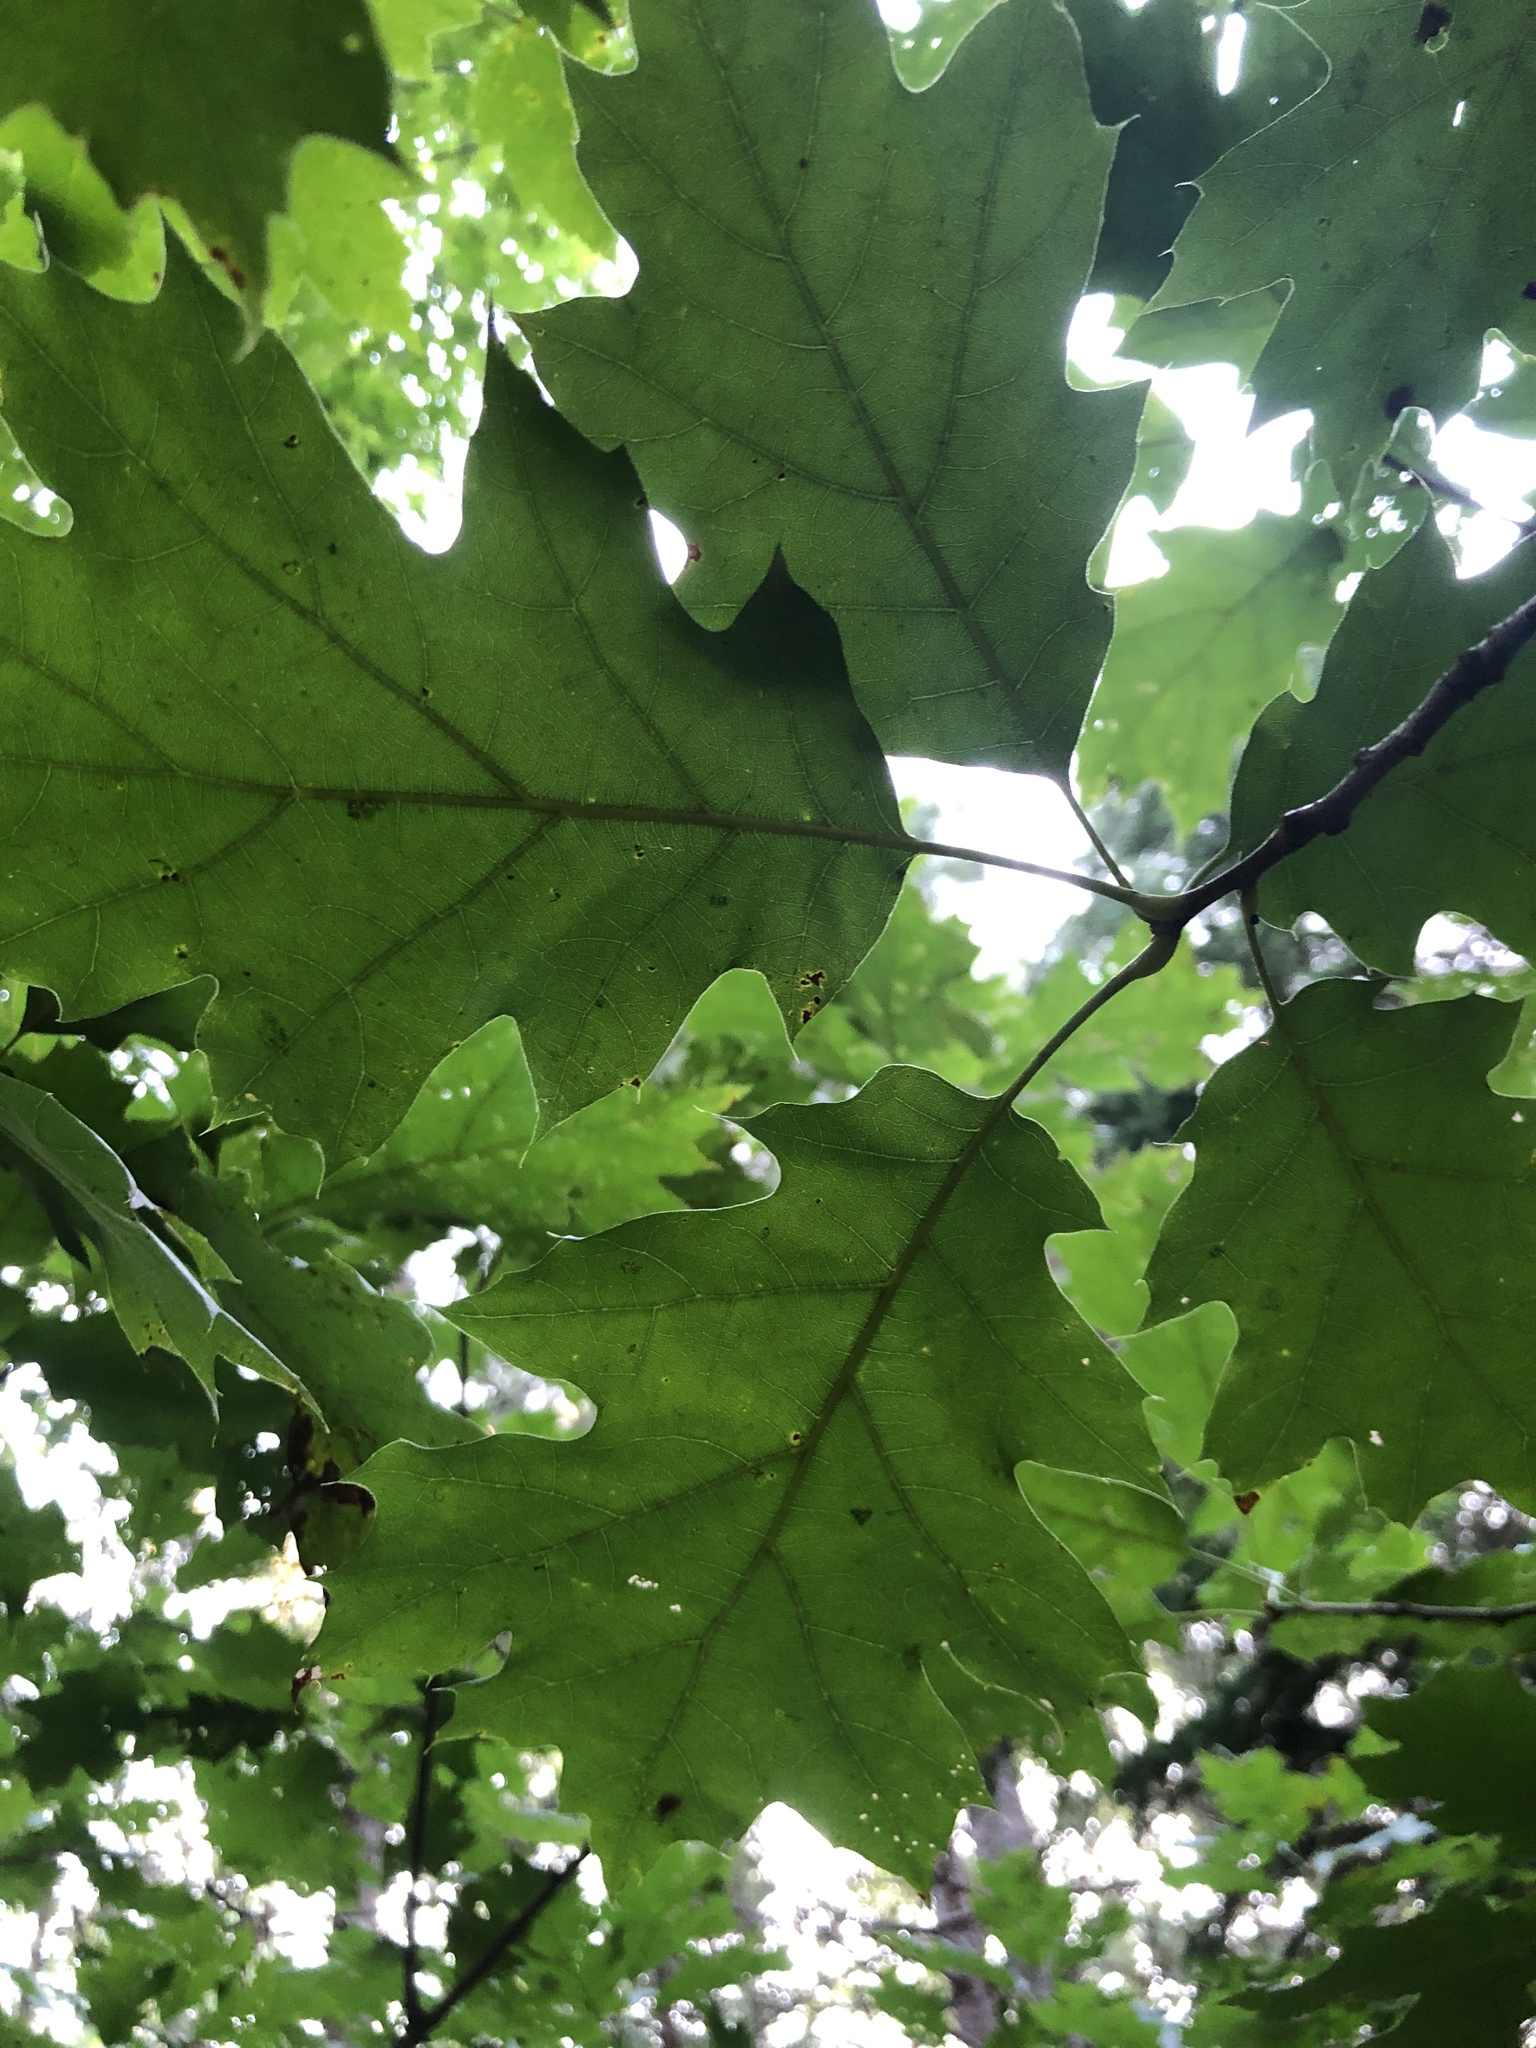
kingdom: Plantae
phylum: Tracheophyta
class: Magnoliopsida
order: Fagales
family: Fagaceae
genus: Quercus
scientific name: Quercus rubra
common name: Red oak
